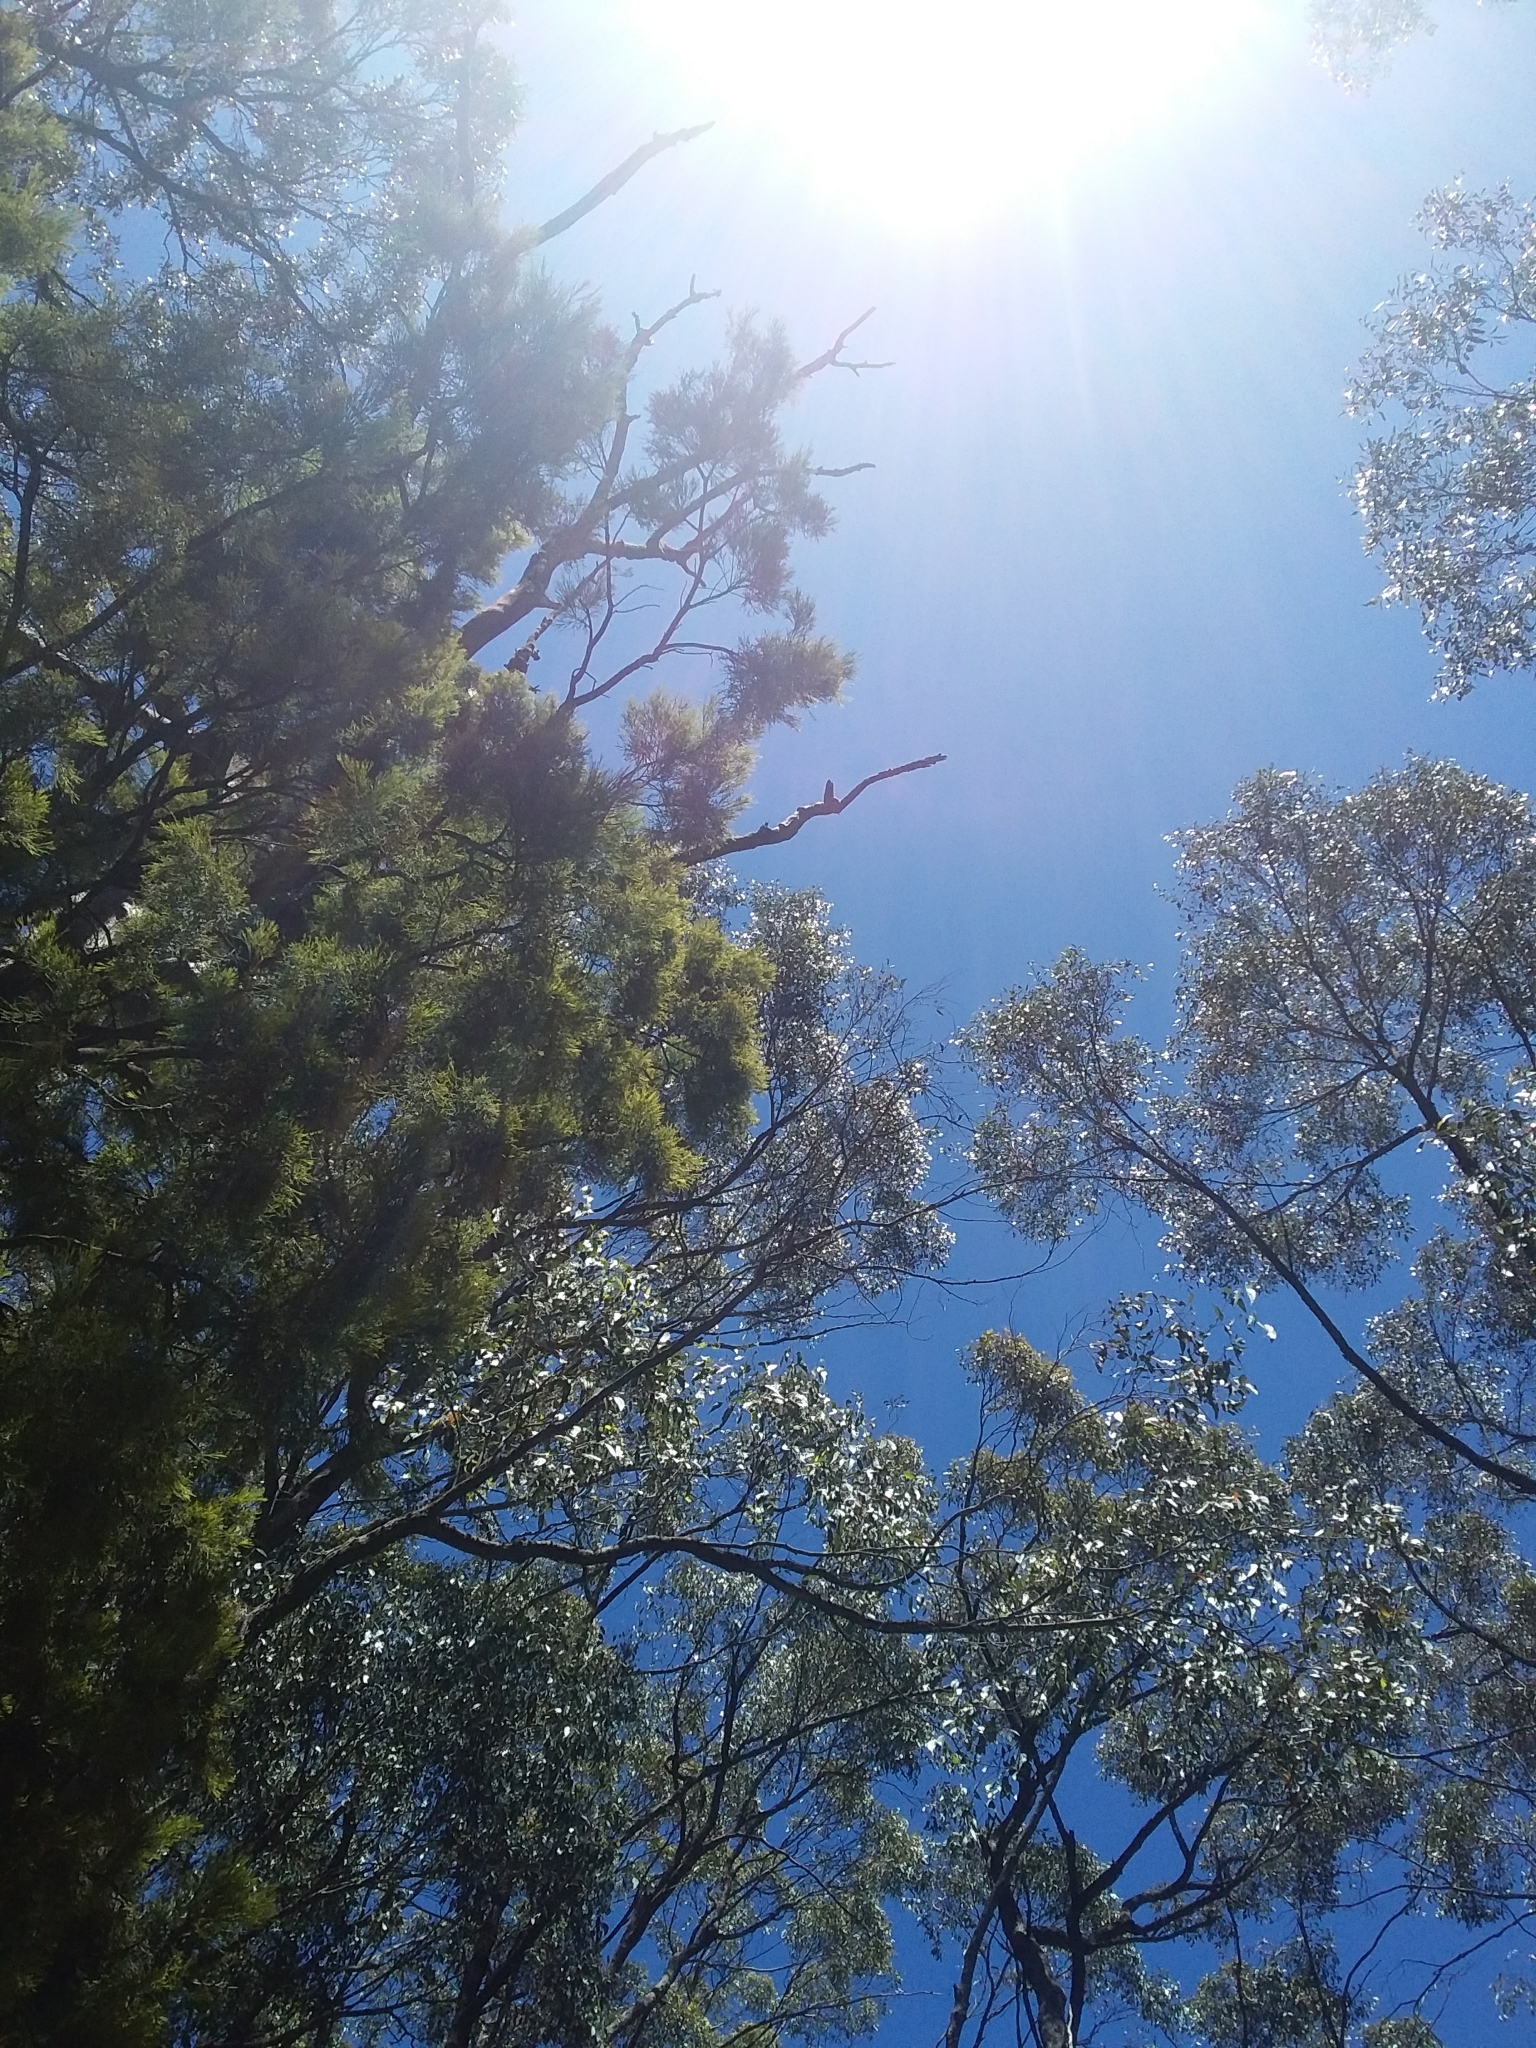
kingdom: Plantae
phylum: Tracheophyta
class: Liliopsida
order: Asparagales
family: Orchidaceae
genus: Dipodium
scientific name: Dipodium roseum
